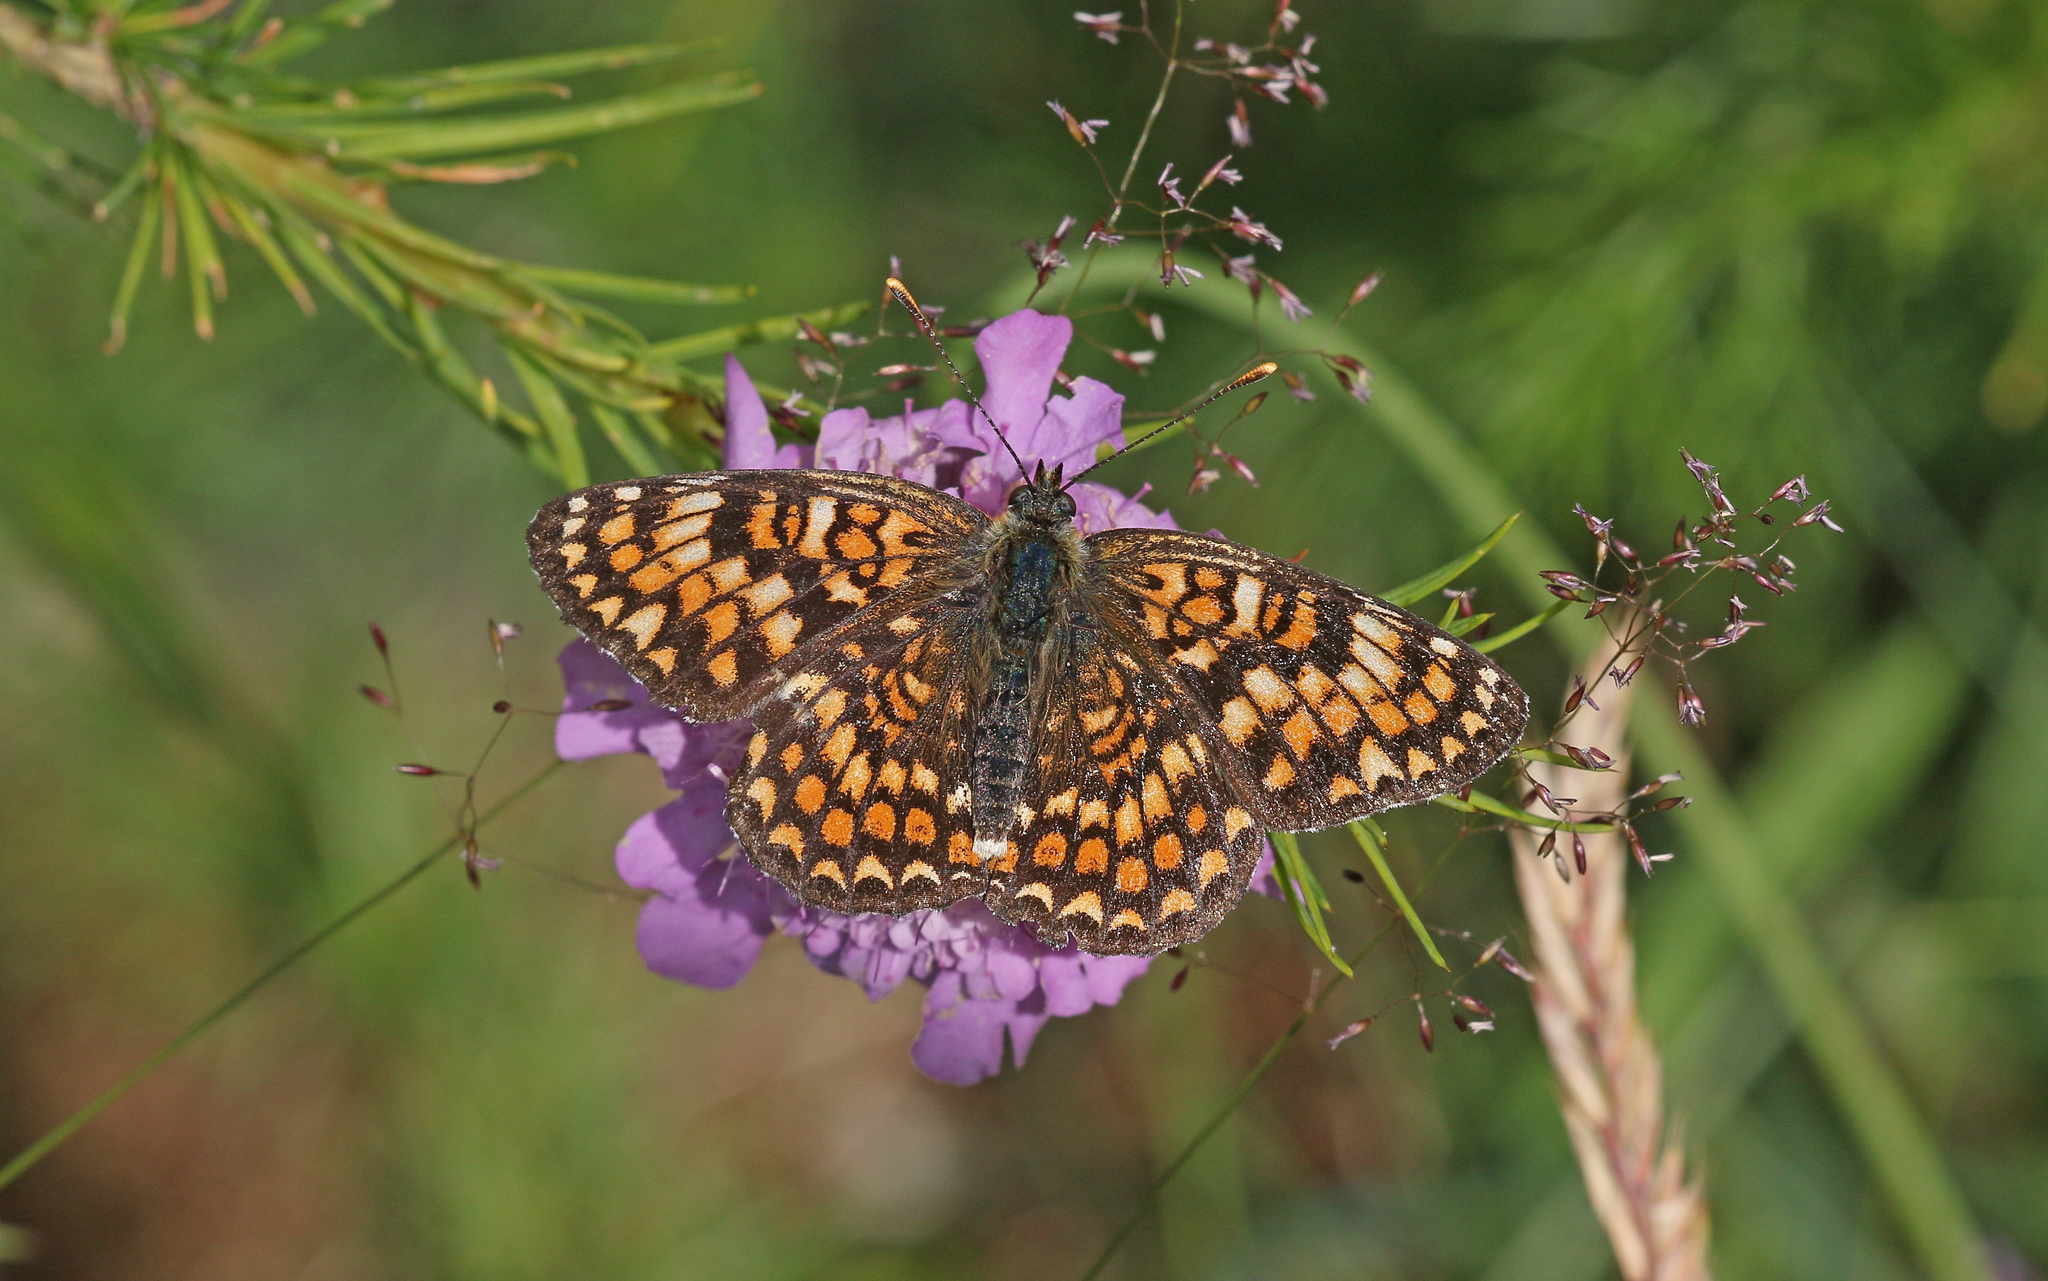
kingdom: Animalia
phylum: Arthropoda
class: Insecta
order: Lepidoptera
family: Nymphalidae
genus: Melitaea
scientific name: Melitaea phoebe
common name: Knapweed fritillary
